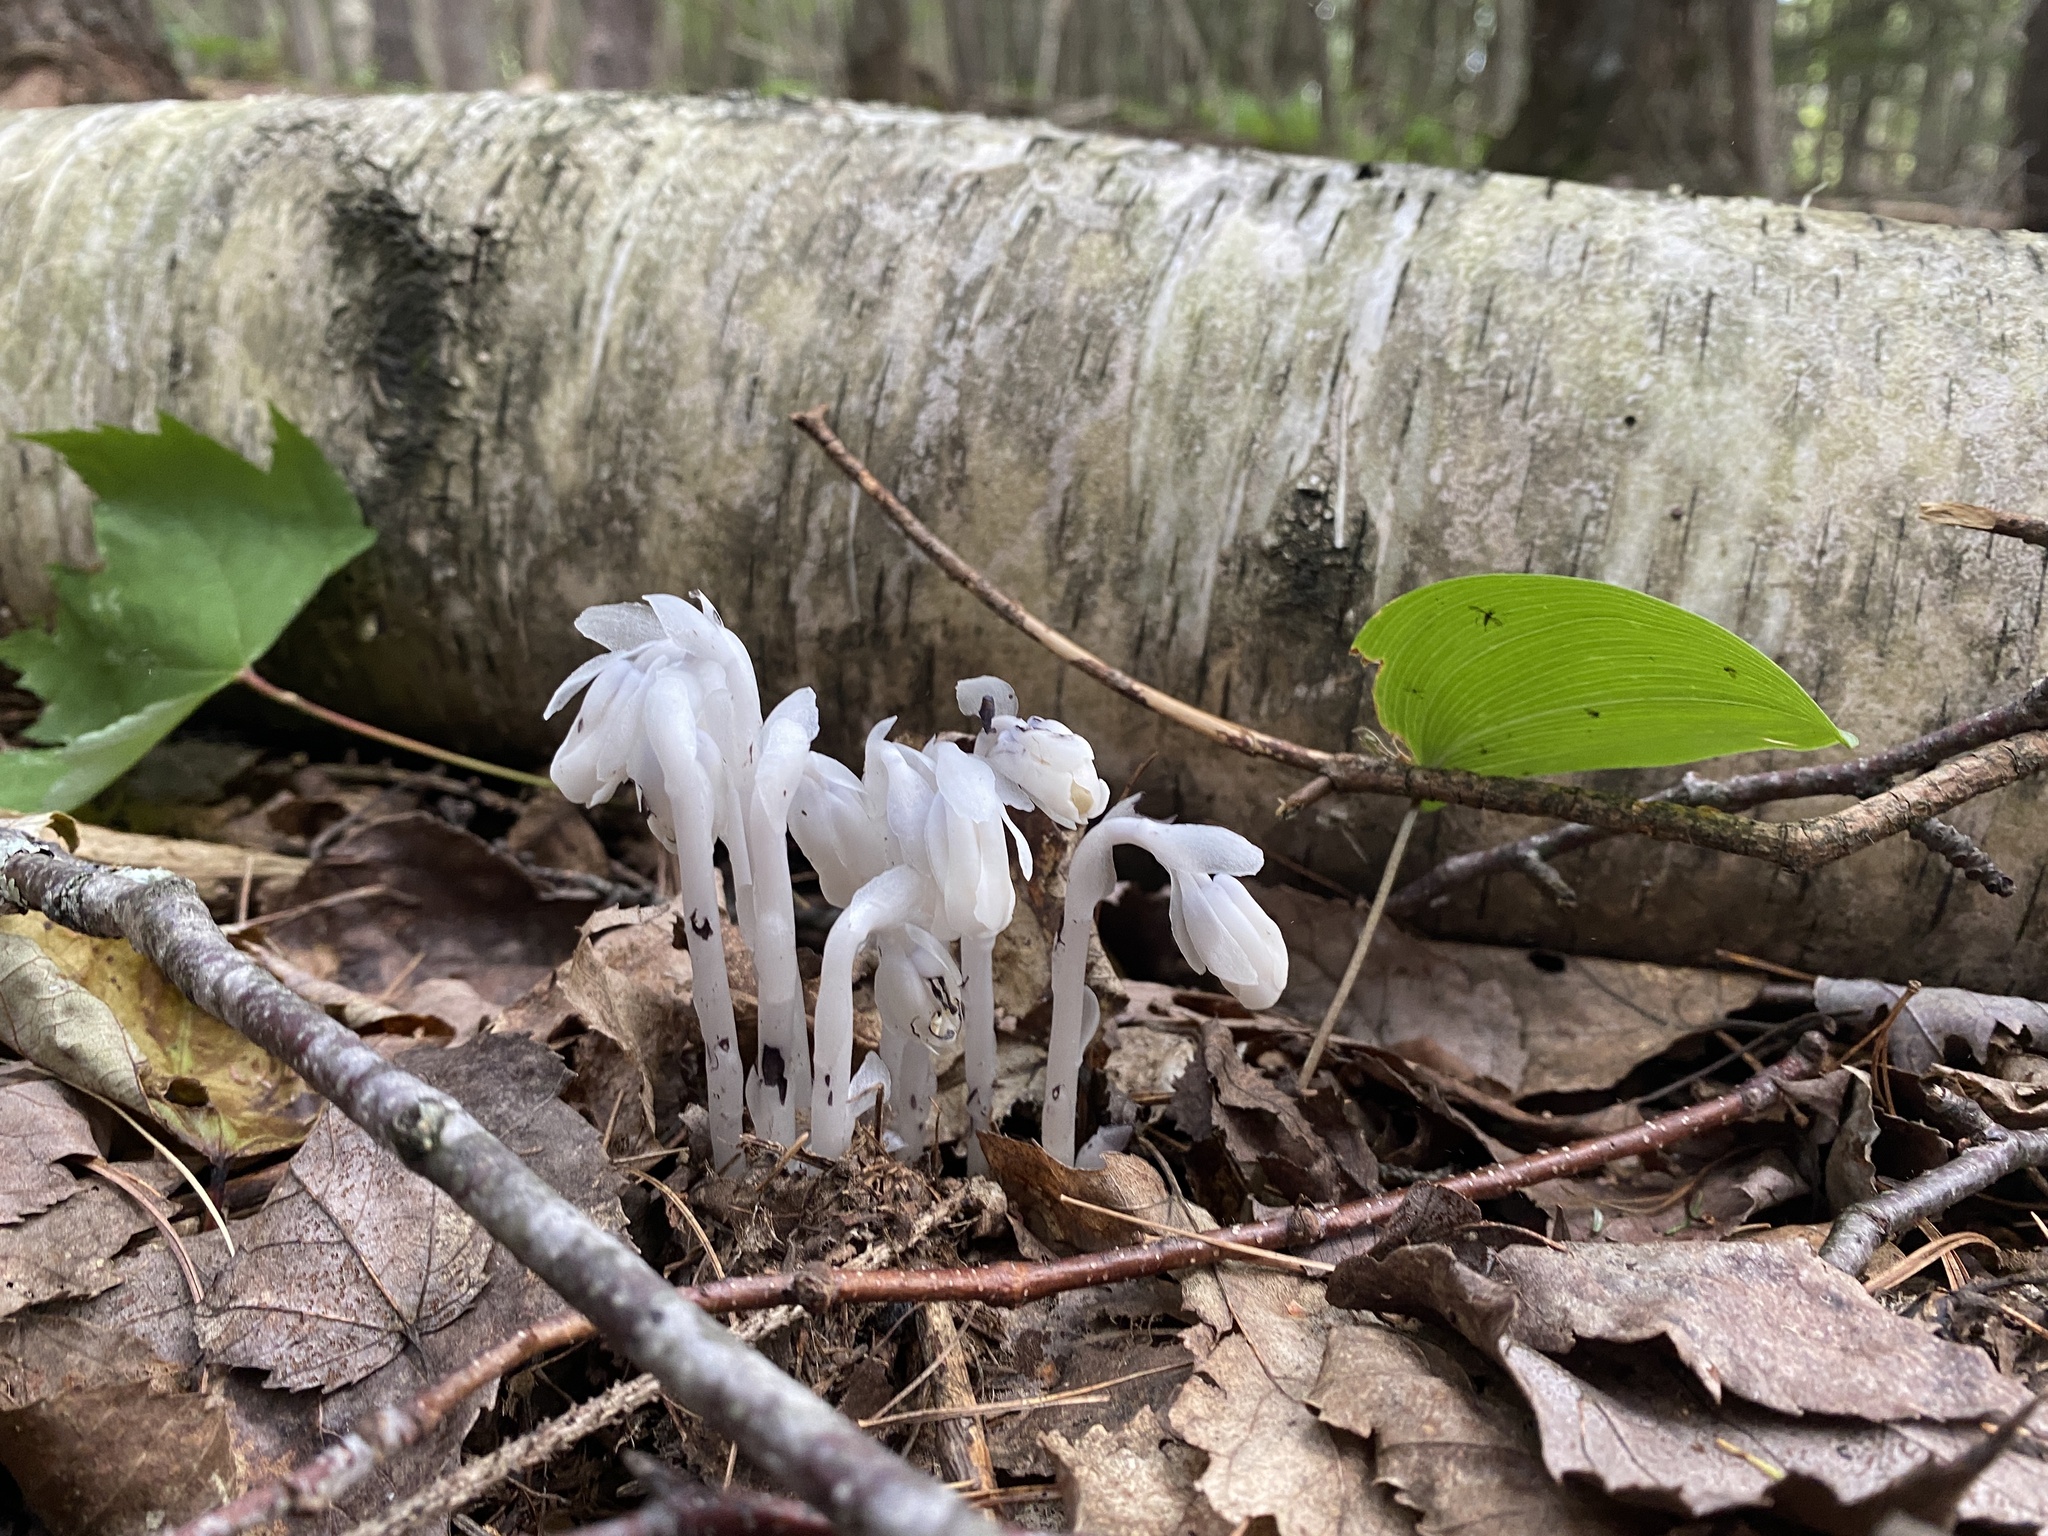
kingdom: Plantae
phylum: Tracheophyta
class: Magnoliopsida
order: Ericales
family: Ericaceae
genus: Monotropa
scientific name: Monotropa uniflora
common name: Convulsion root
